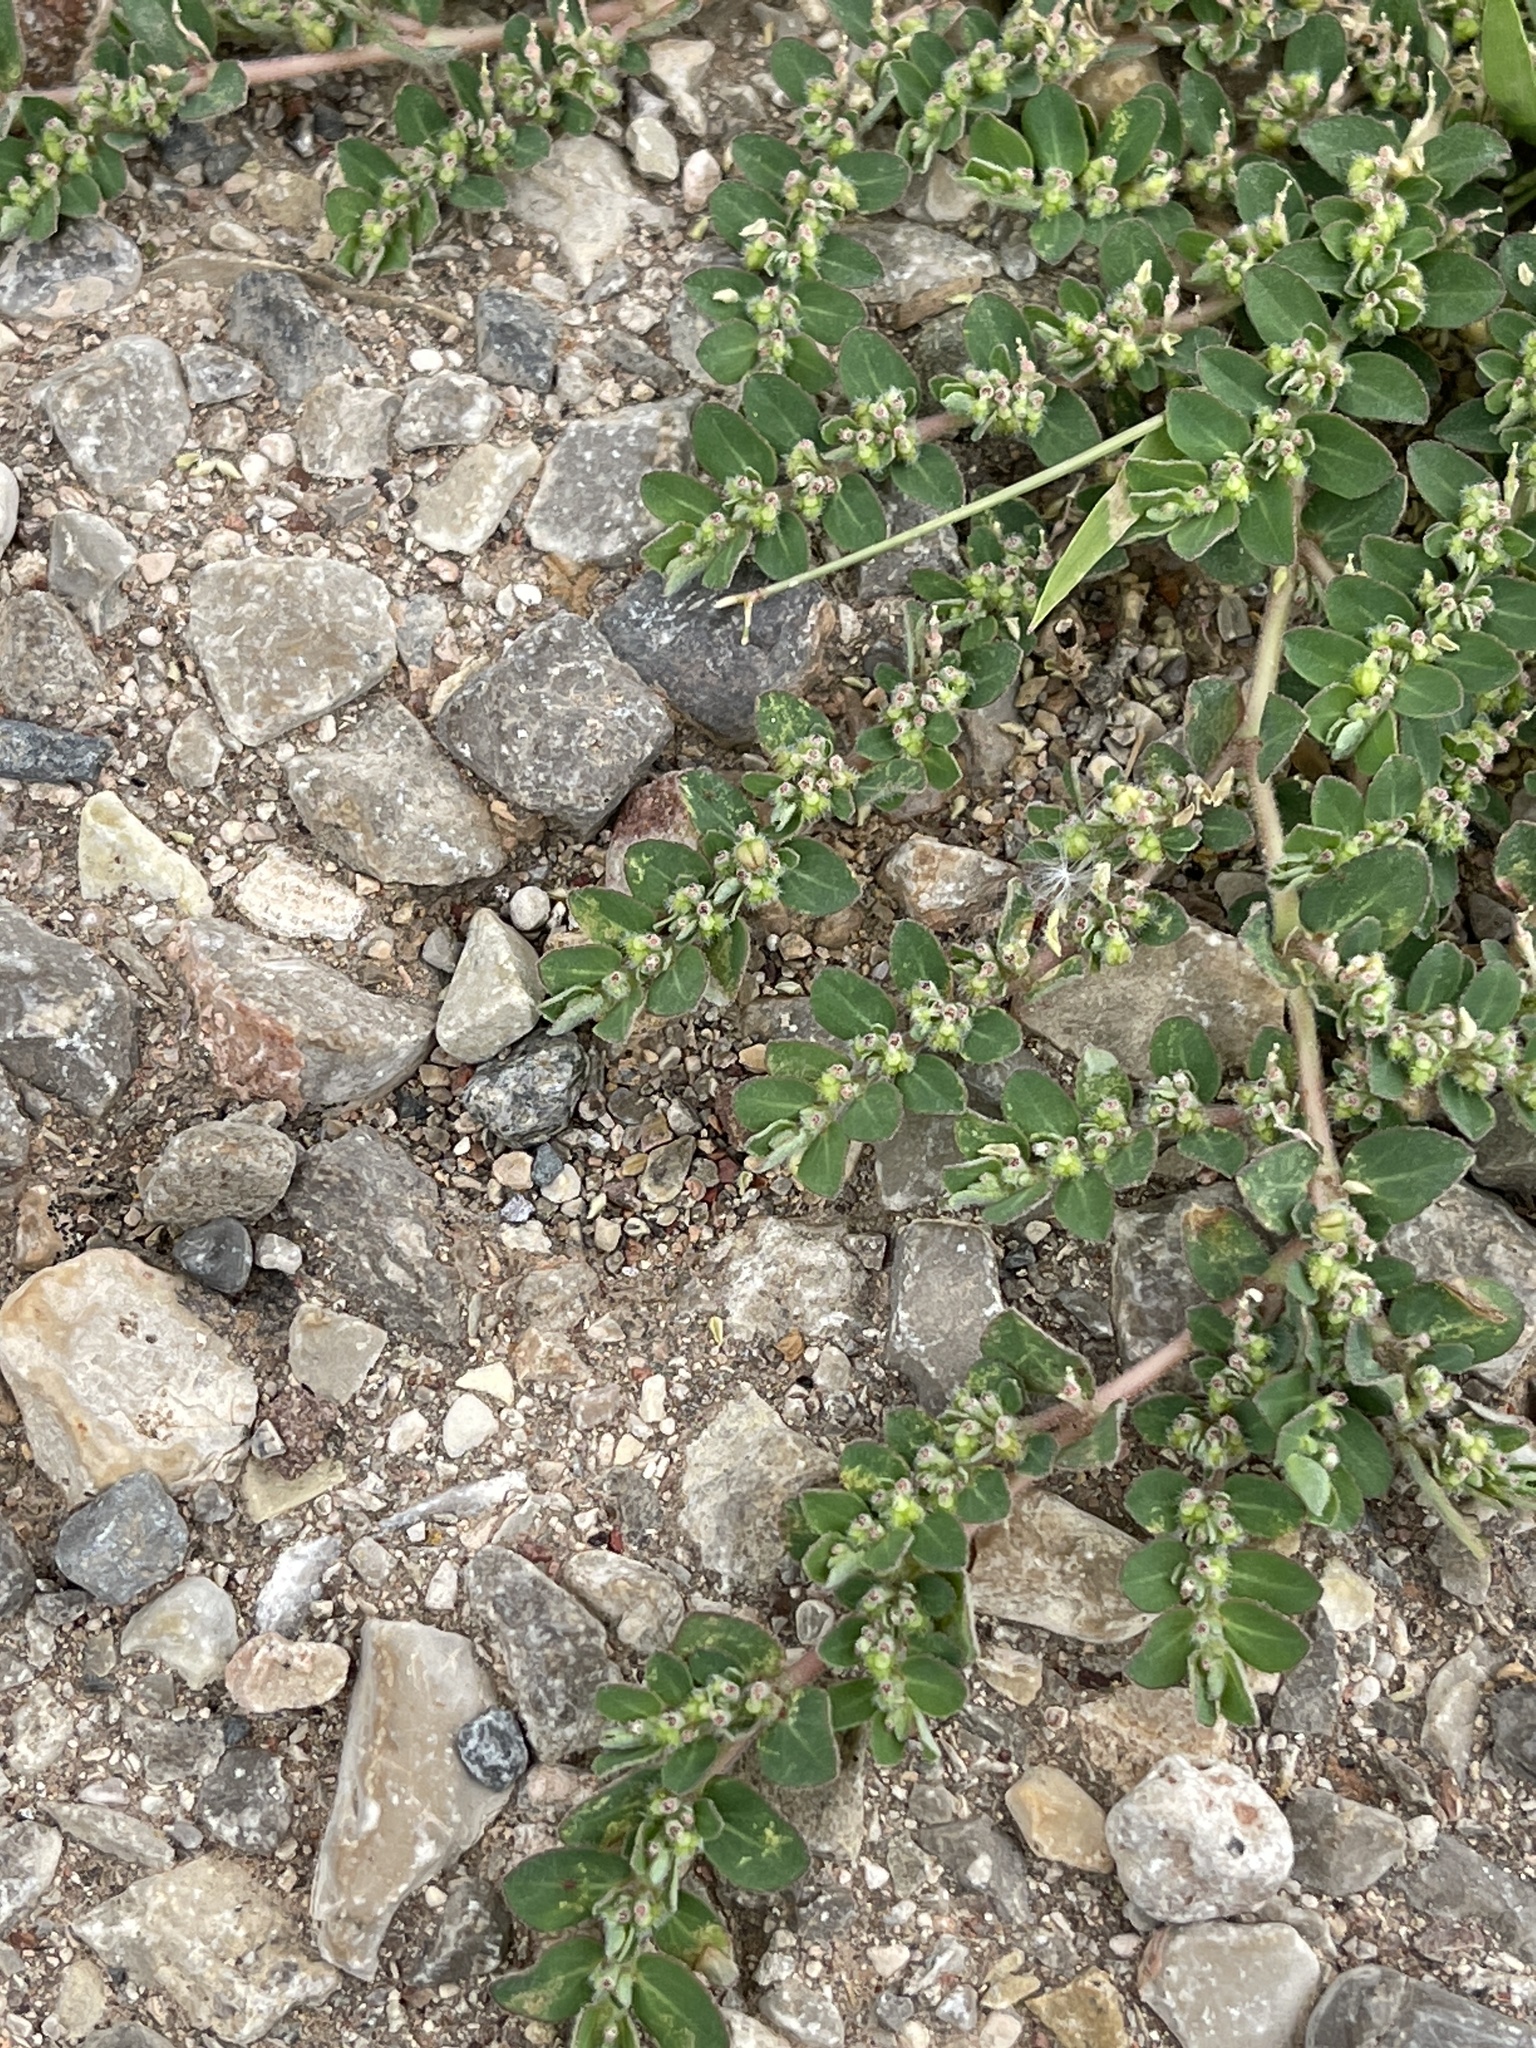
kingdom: Plantae
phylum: Tracheophyta
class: Magnoliopsida
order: Malpighiales
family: Euphorbiaceae
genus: Euphorbia
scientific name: Euphorbia prostrata
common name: Prostrate sandmat
